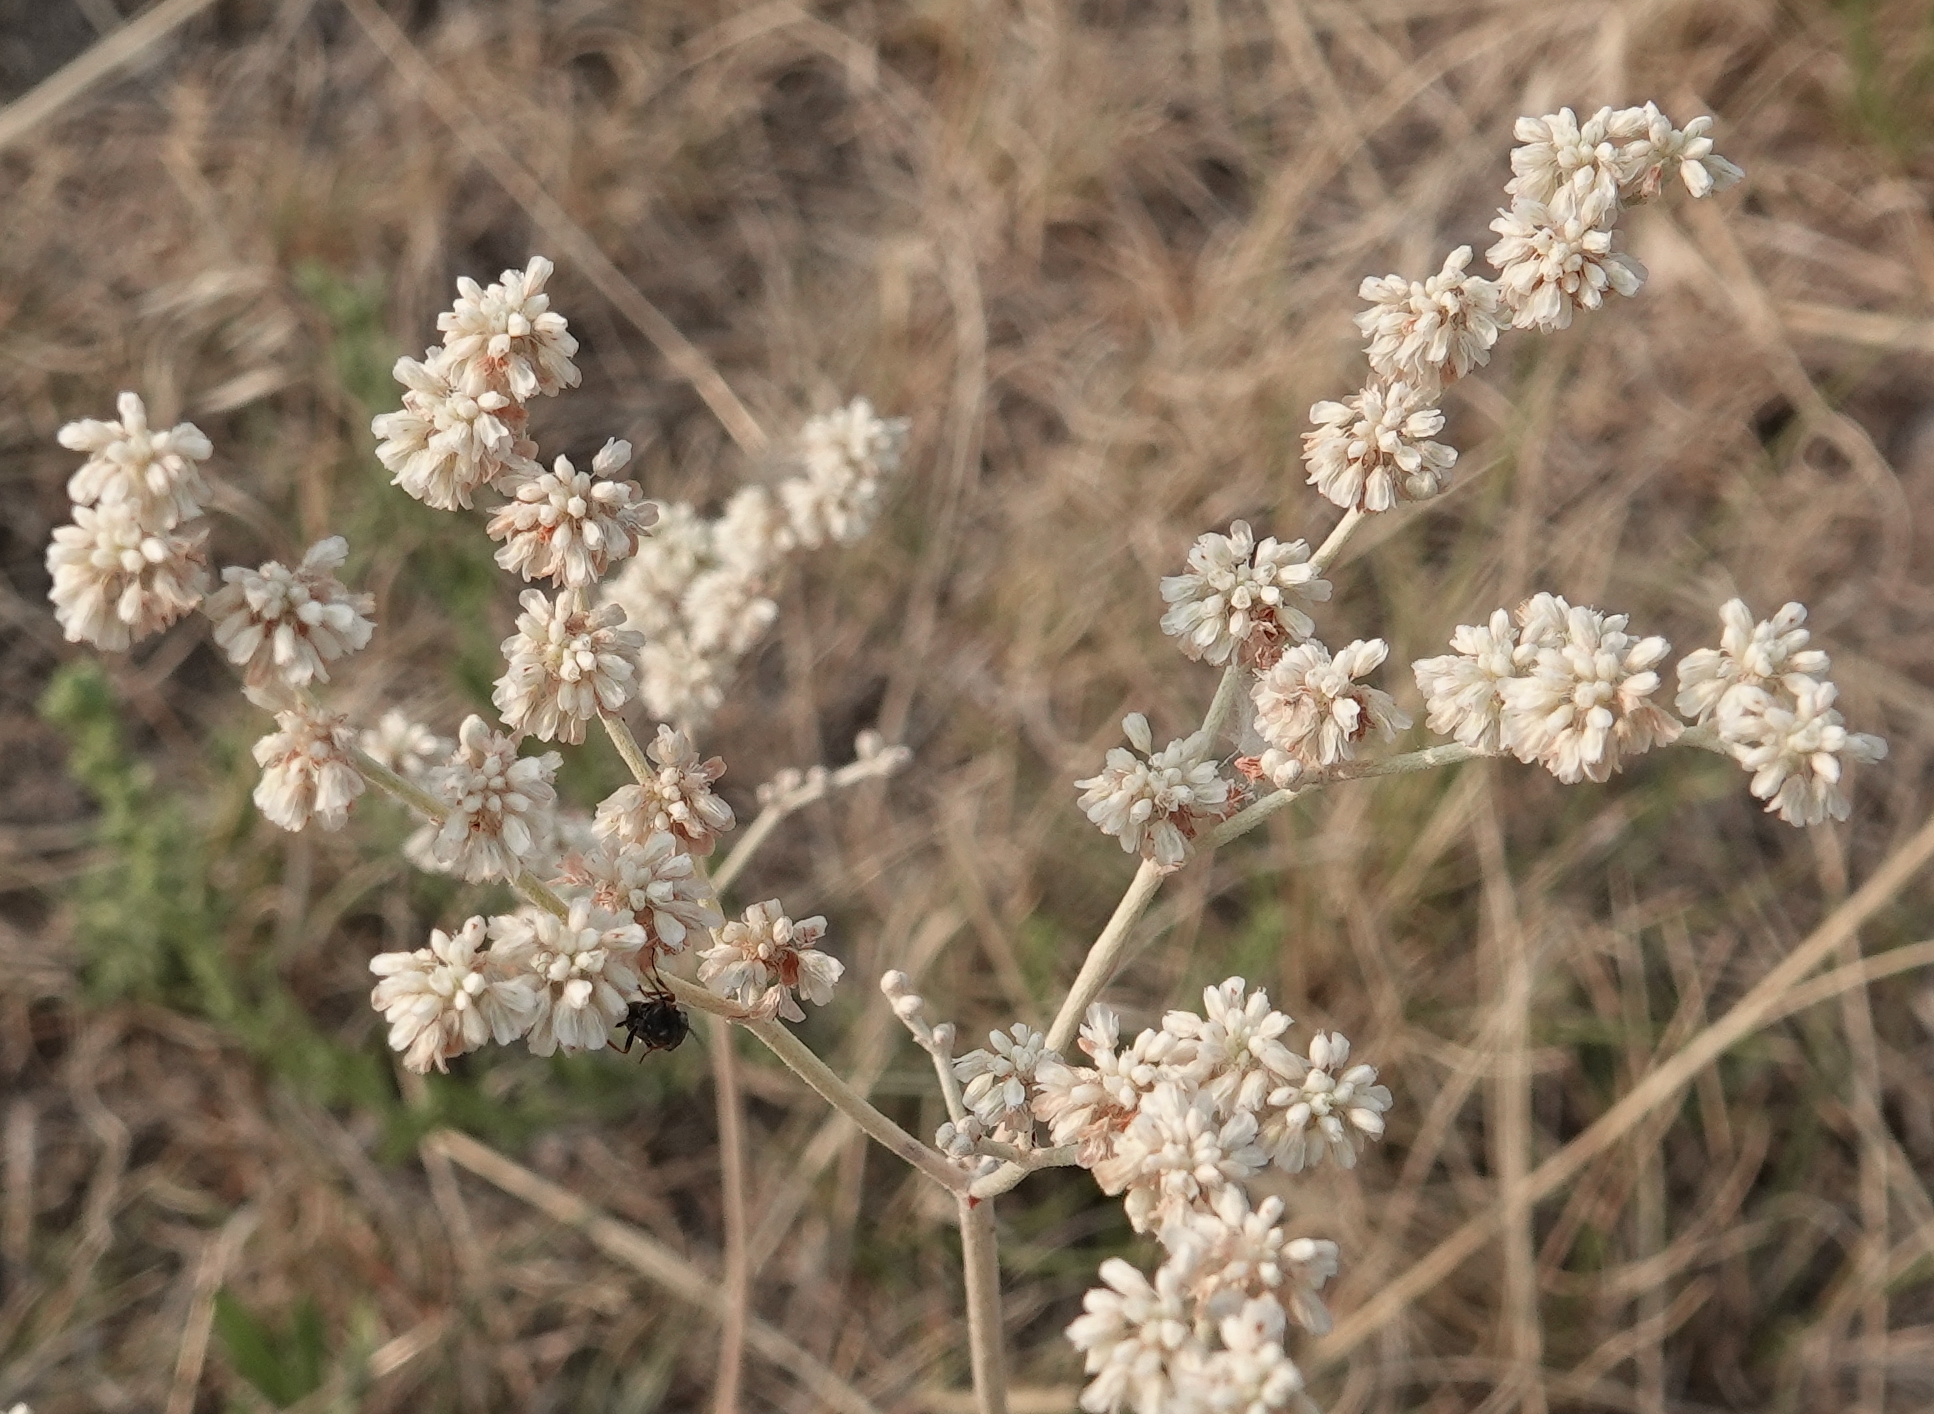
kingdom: Plantae
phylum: Tracheophyta
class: Magnoliopsida
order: Caryophyllales
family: Polygonaceae
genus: Eriogonum
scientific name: Eriogonum annuum
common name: Annual wild buckwheat
